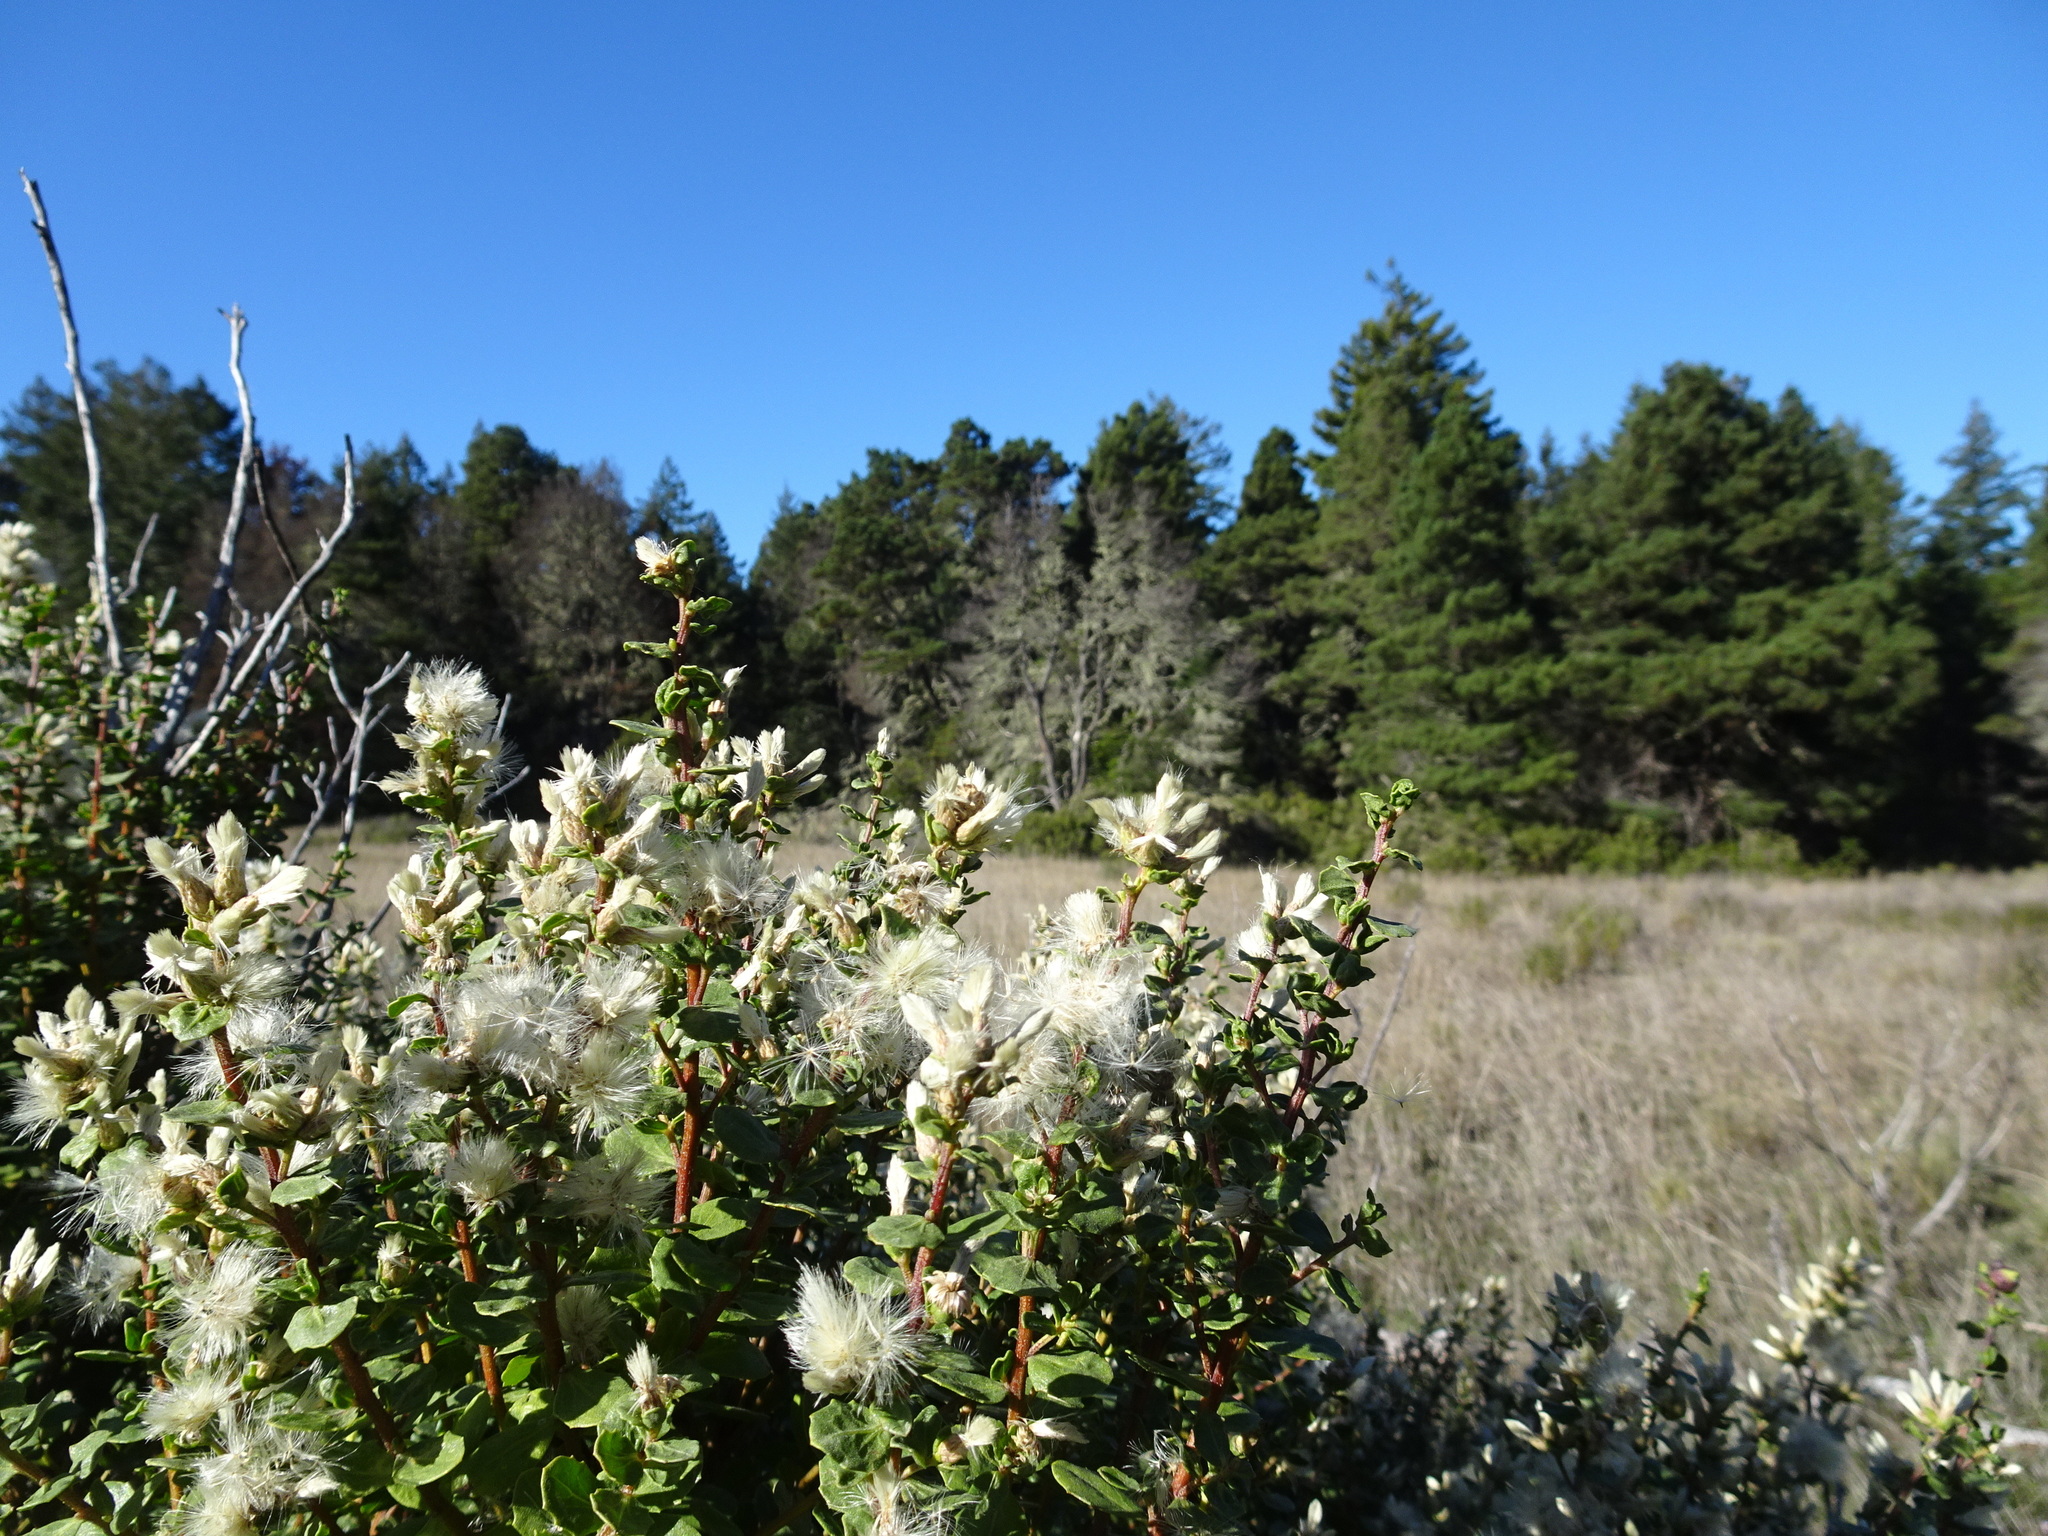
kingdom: Plantae
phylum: Tracheophyta
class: Magnoliopsida
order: Asterales
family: Asteraceae
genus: Baccharis
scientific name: Baccharis pilularis
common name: Coyotebrush
